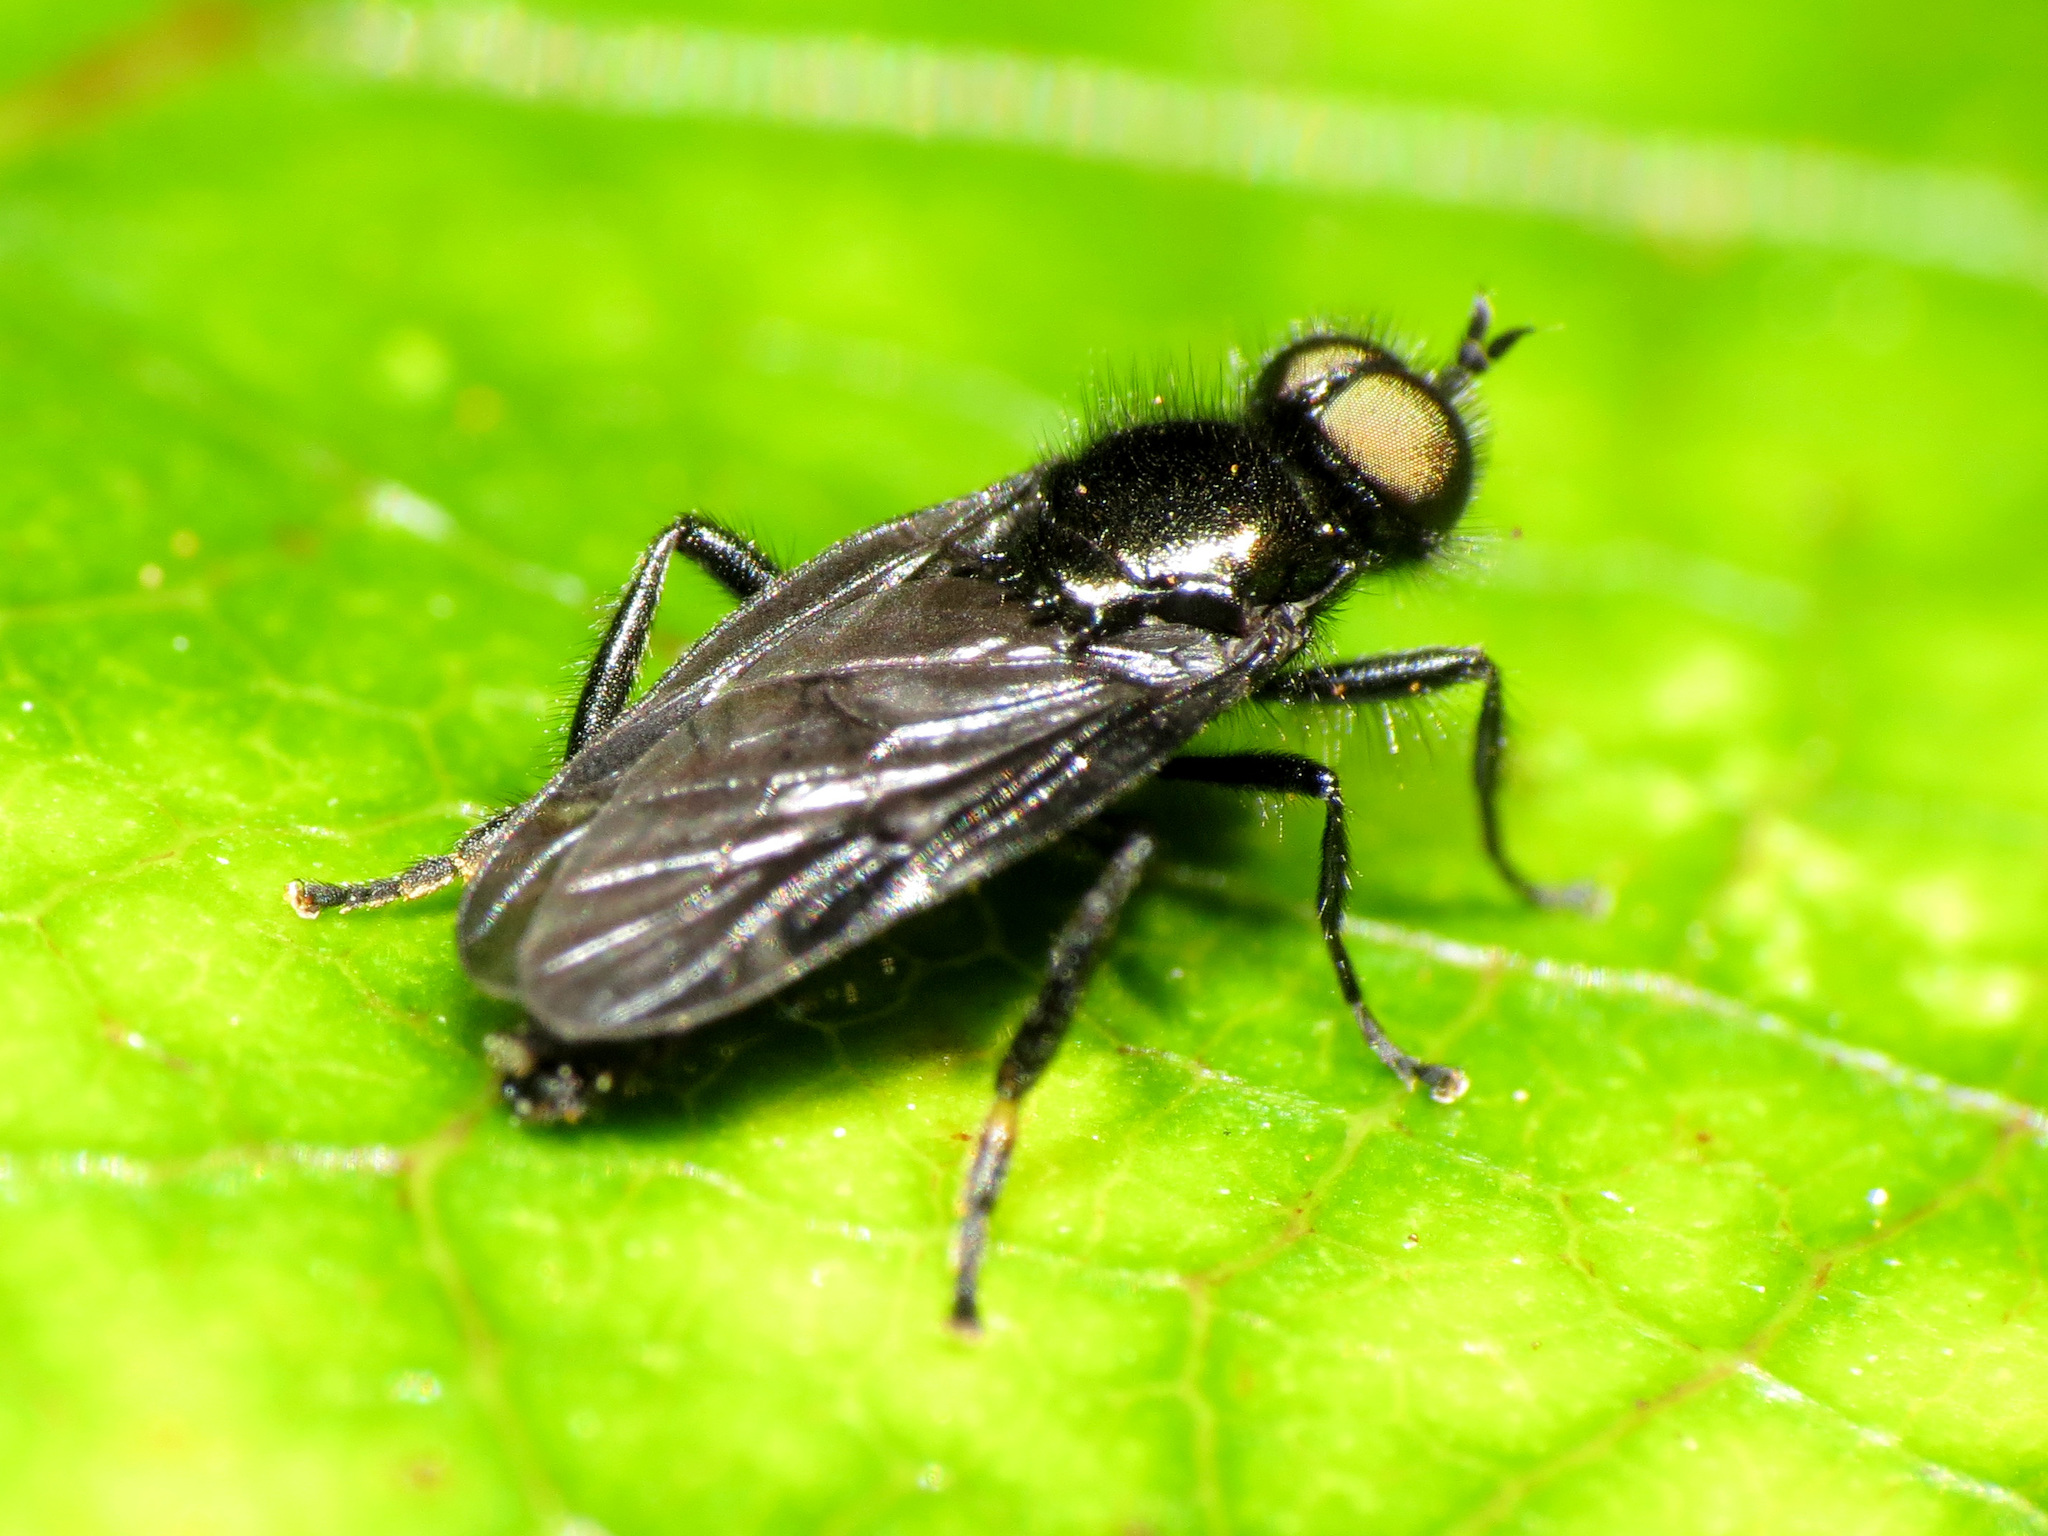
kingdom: Animalia
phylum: Arthropoda
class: Insecta
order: Diptera
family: Stratiomyidae
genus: Berisina
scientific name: Berisina maculipennis
